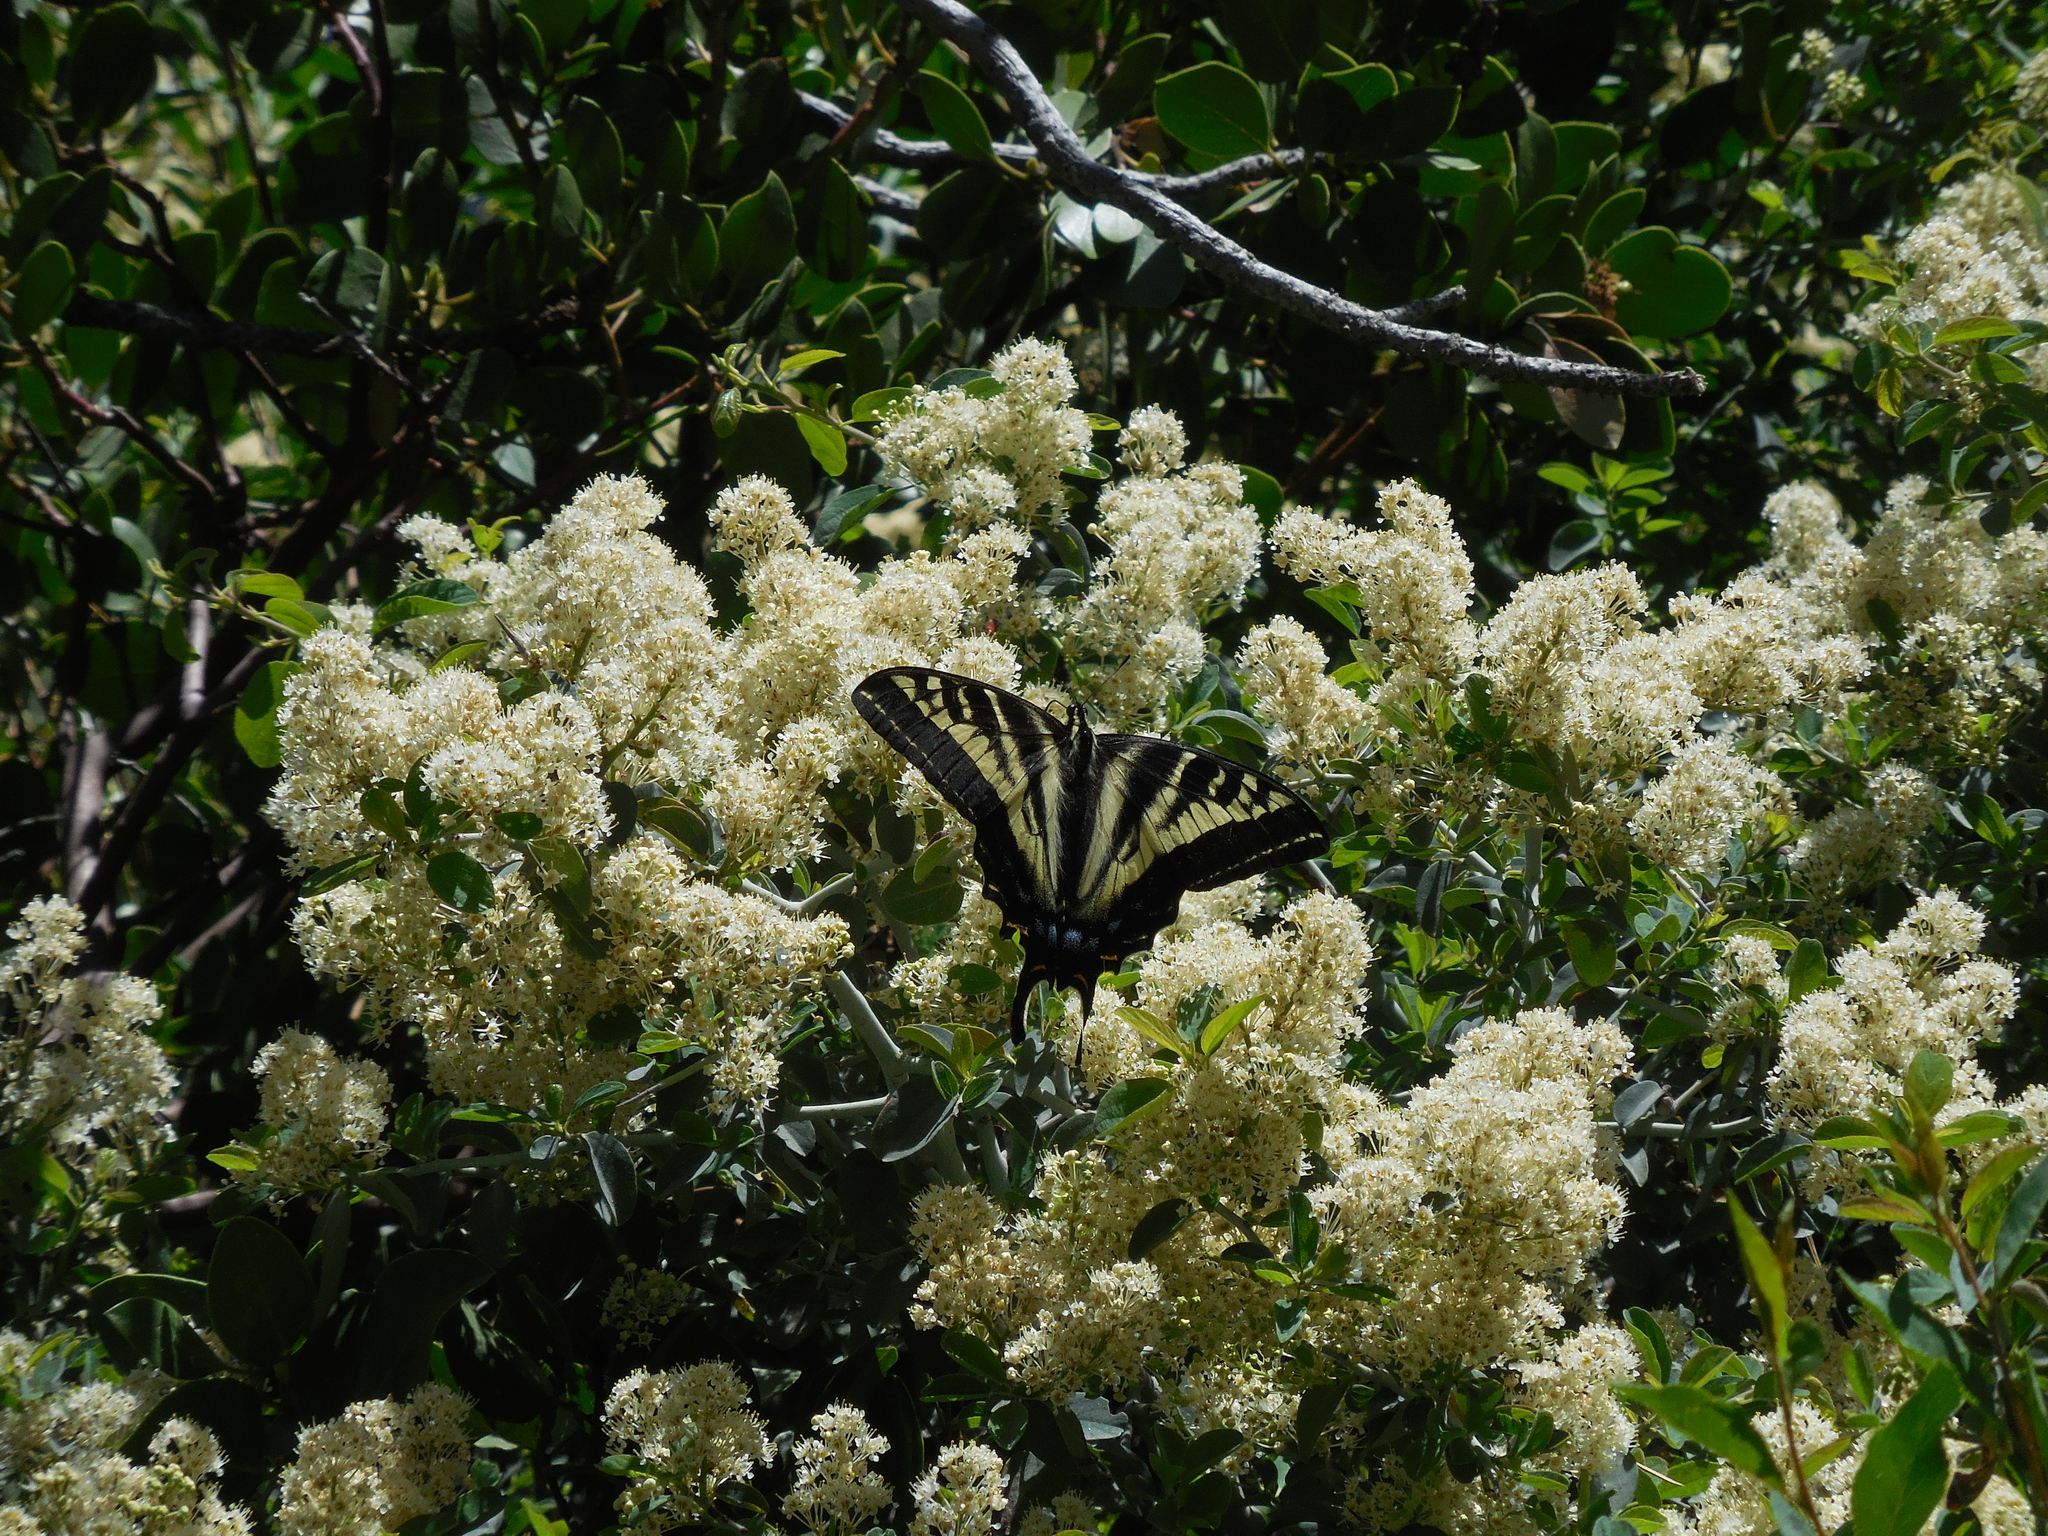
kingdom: Animalia
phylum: Arthropoda
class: Insecta
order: Lepidoptera
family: Papilionidae
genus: Papilio
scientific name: Papilio eurymedon
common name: Pale tiger swallowtail
